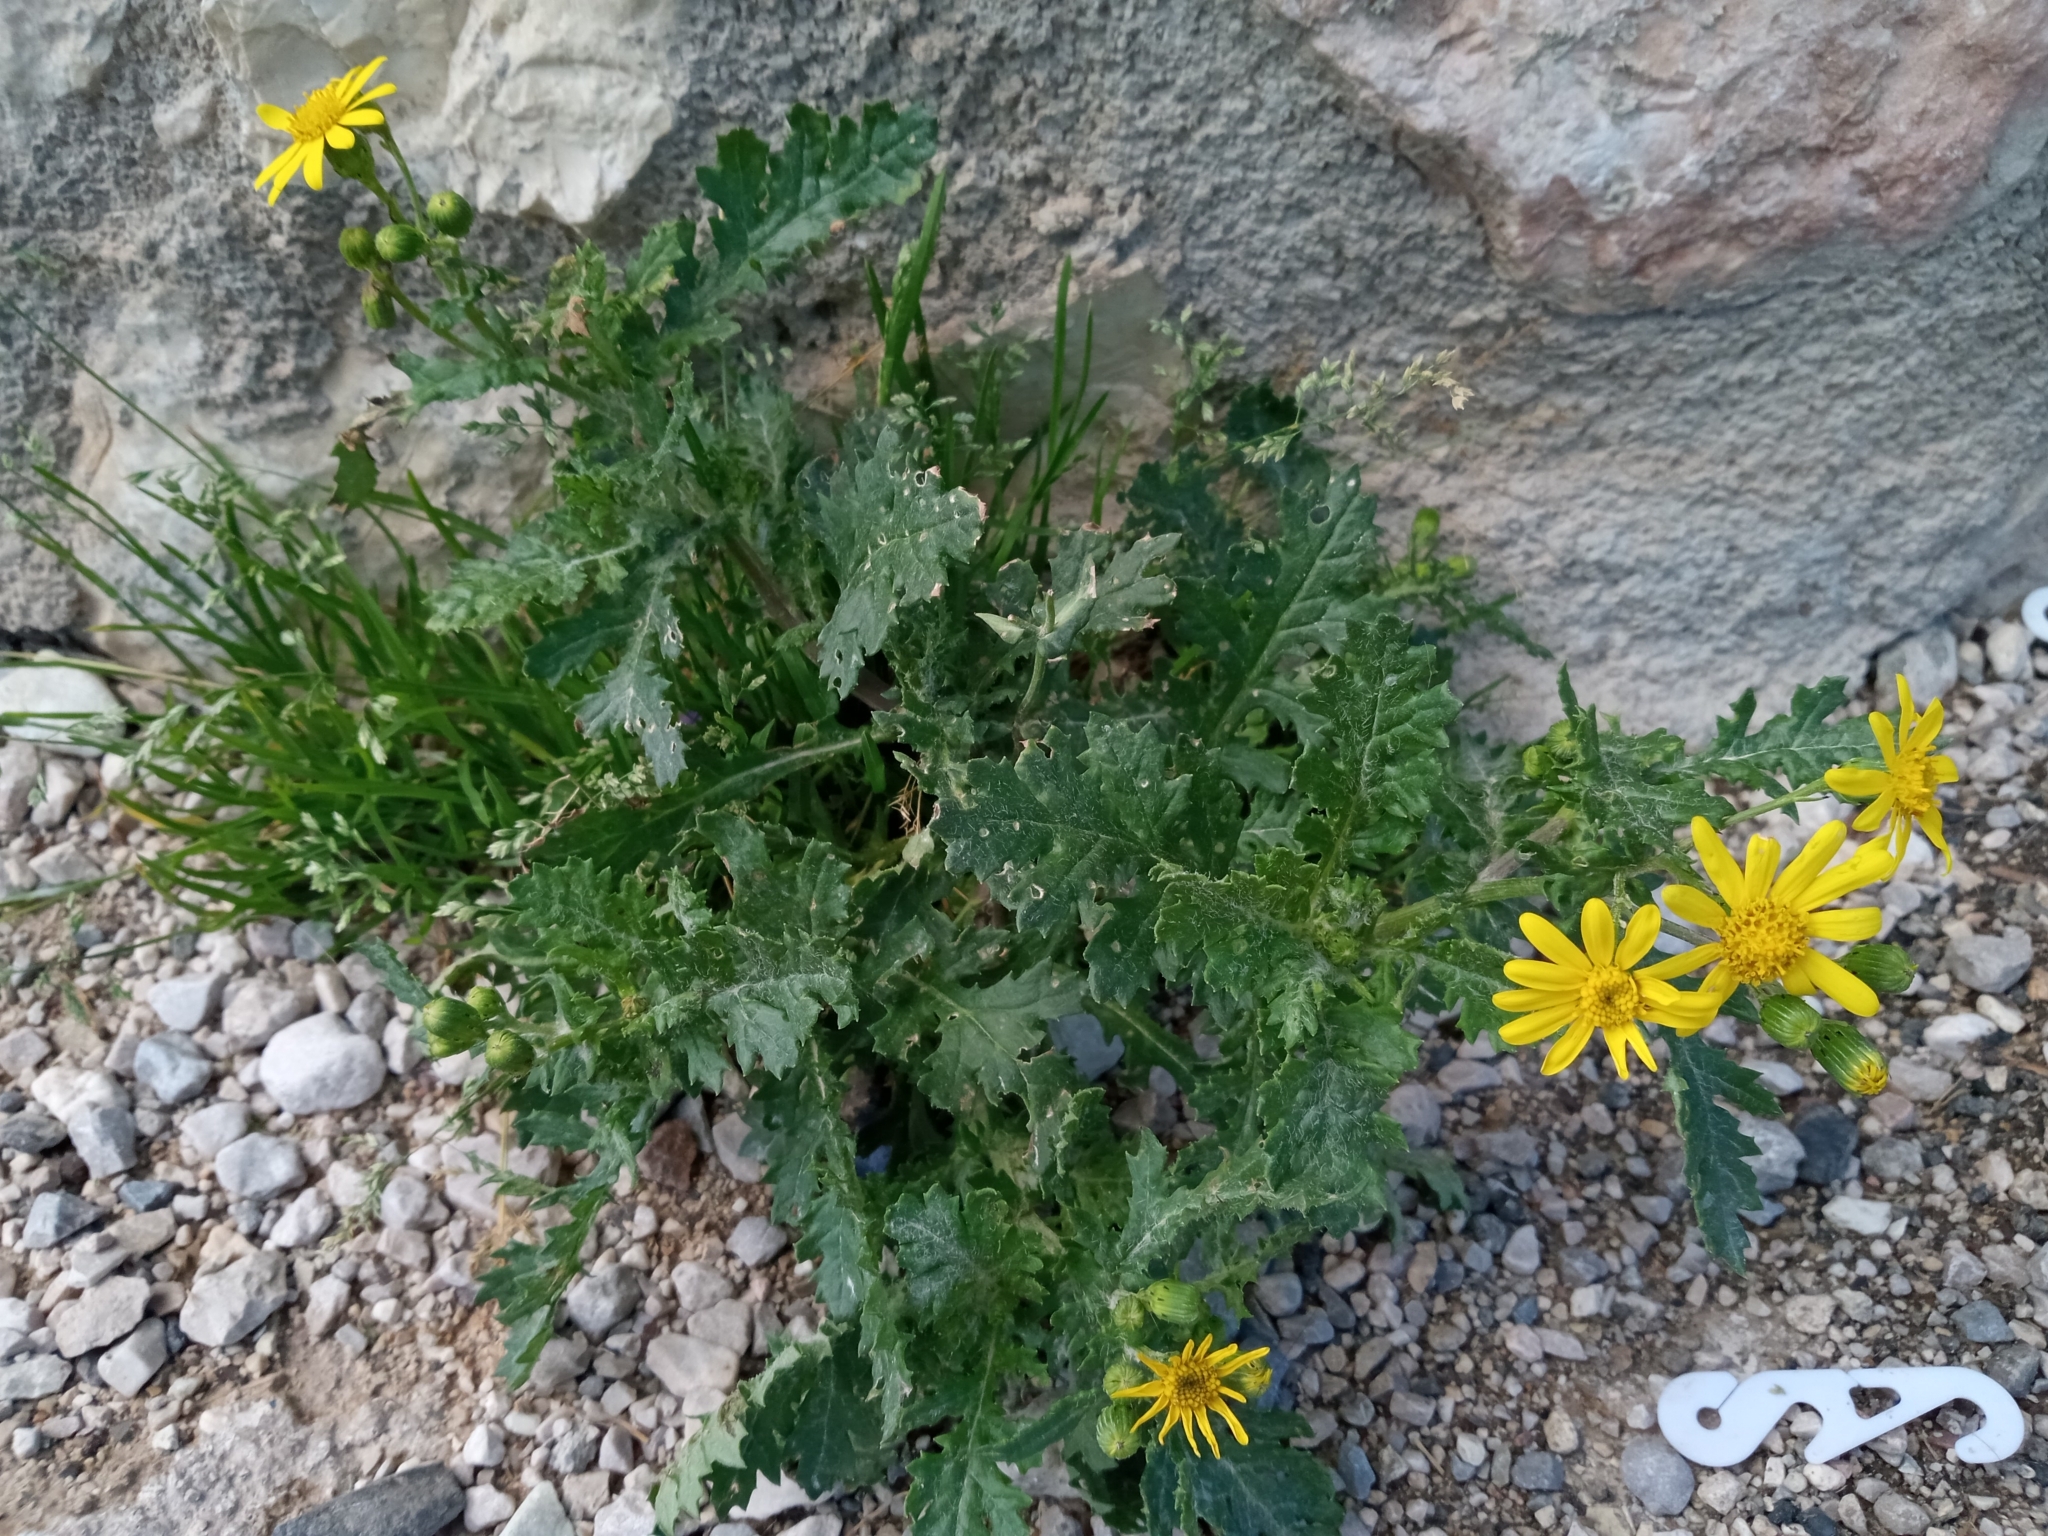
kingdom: Plantae
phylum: Tracheophyta
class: Magnoliopsida
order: Asterales
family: Asteraceae
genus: Senecio
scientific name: Senecio rupestris
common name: Rock ragwort
